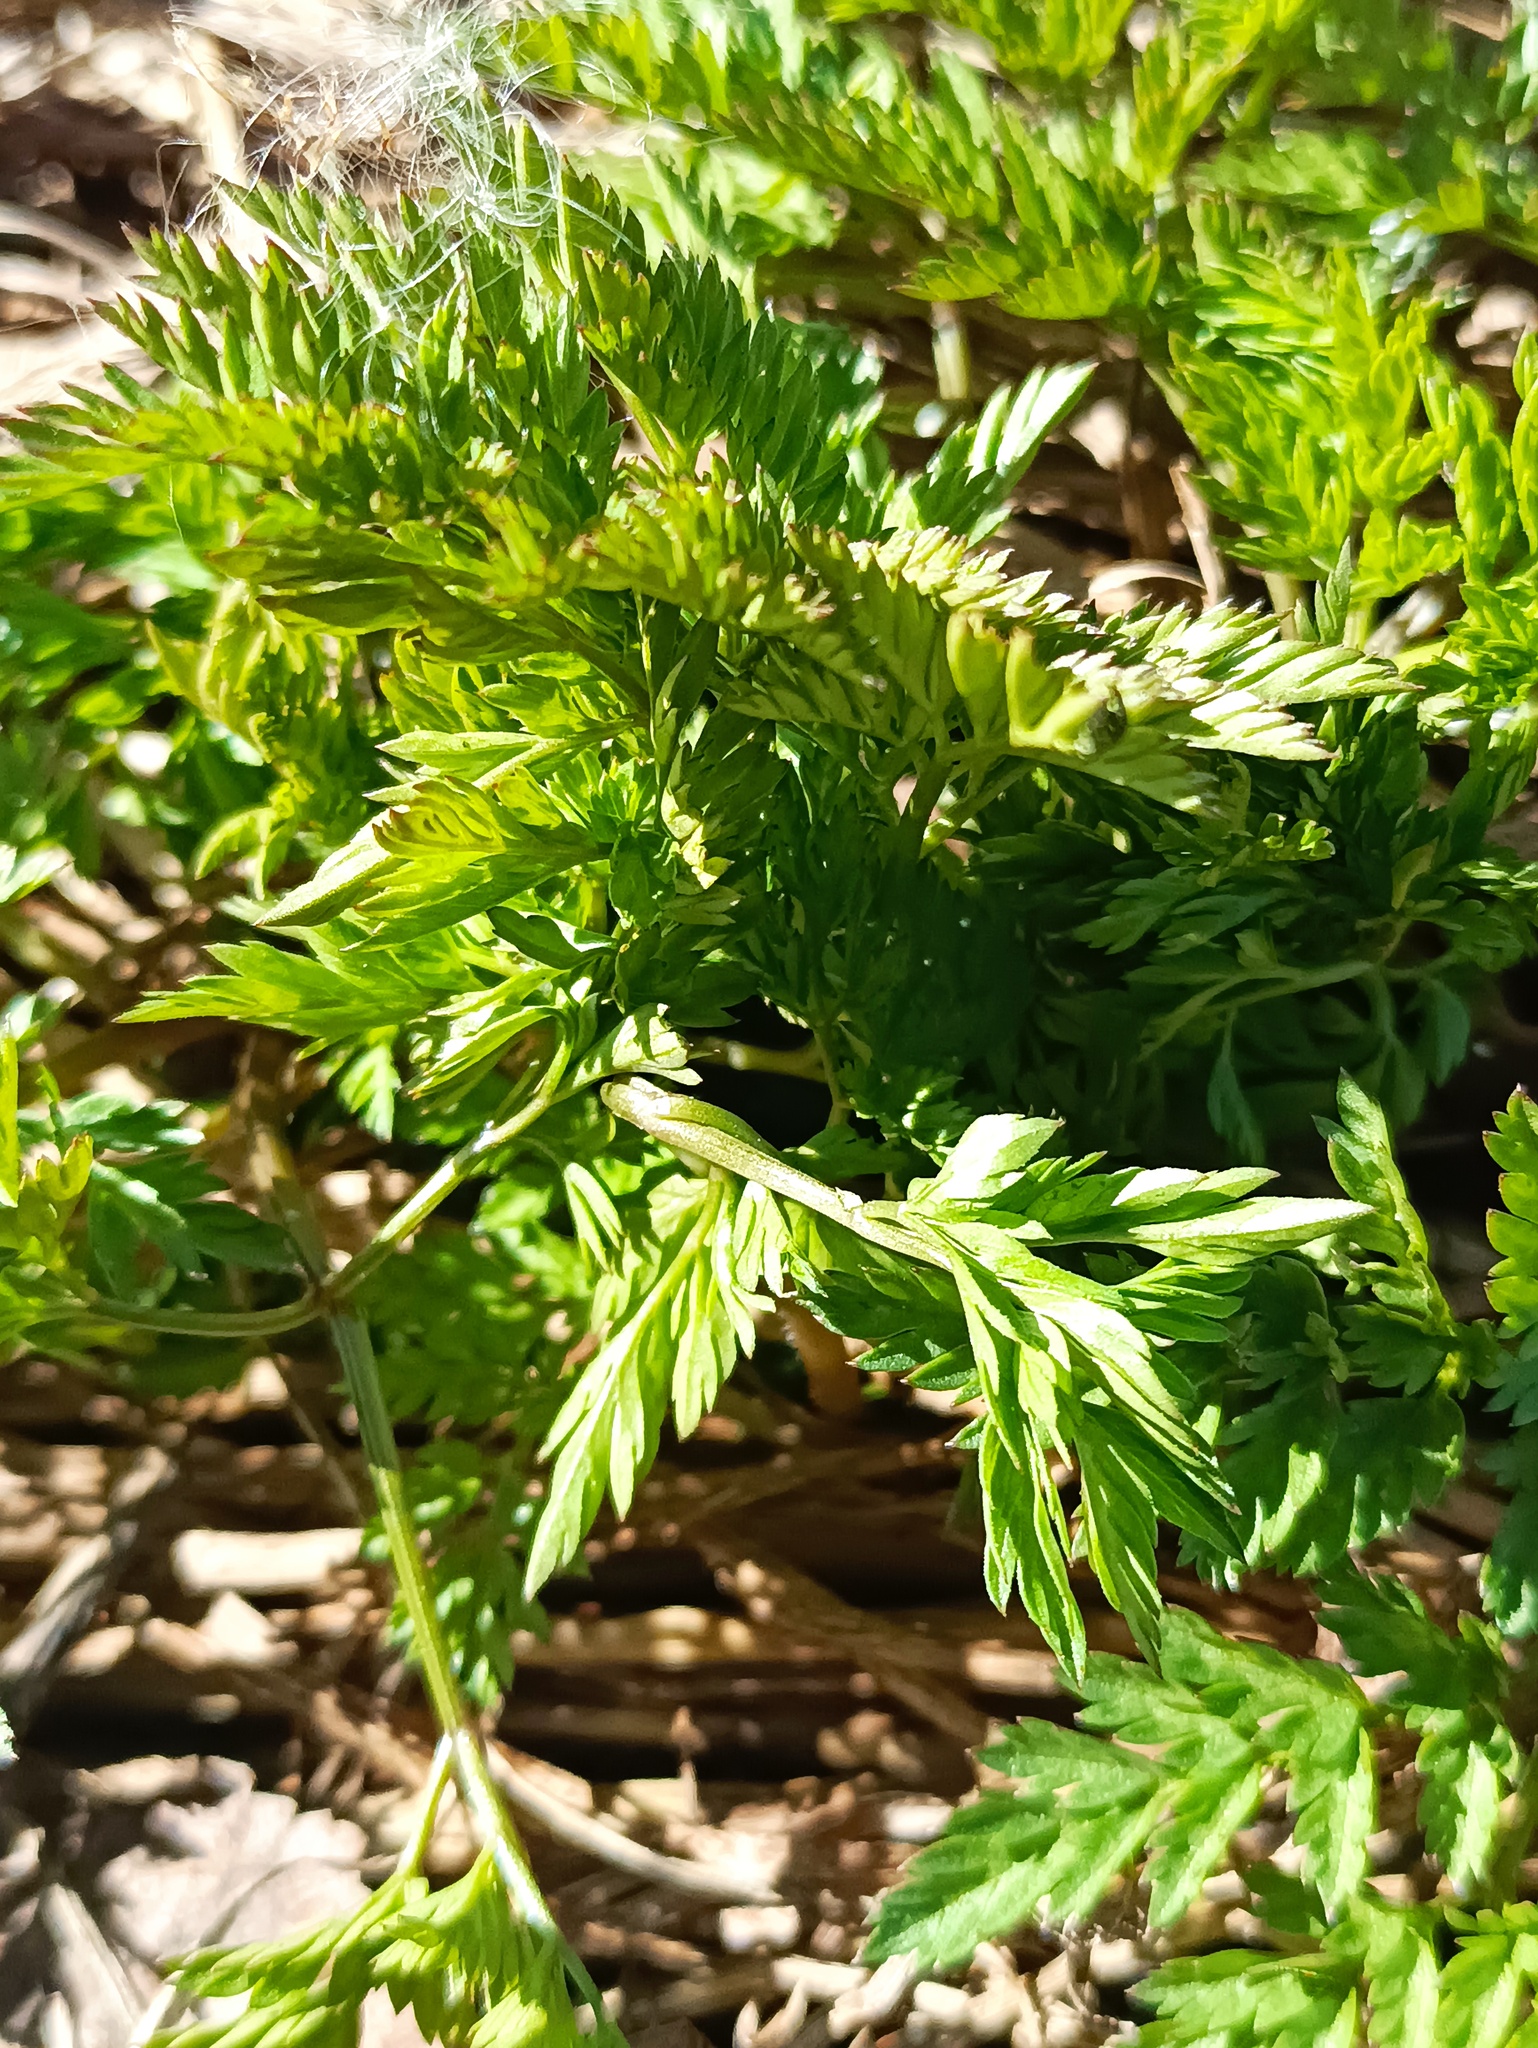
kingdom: Plantae
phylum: Tracheophyta
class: Magnoliopsida
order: Apiales
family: Apiaceae
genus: Anthriscus
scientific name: Anthriscus sylvestris
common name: Cow parsley
